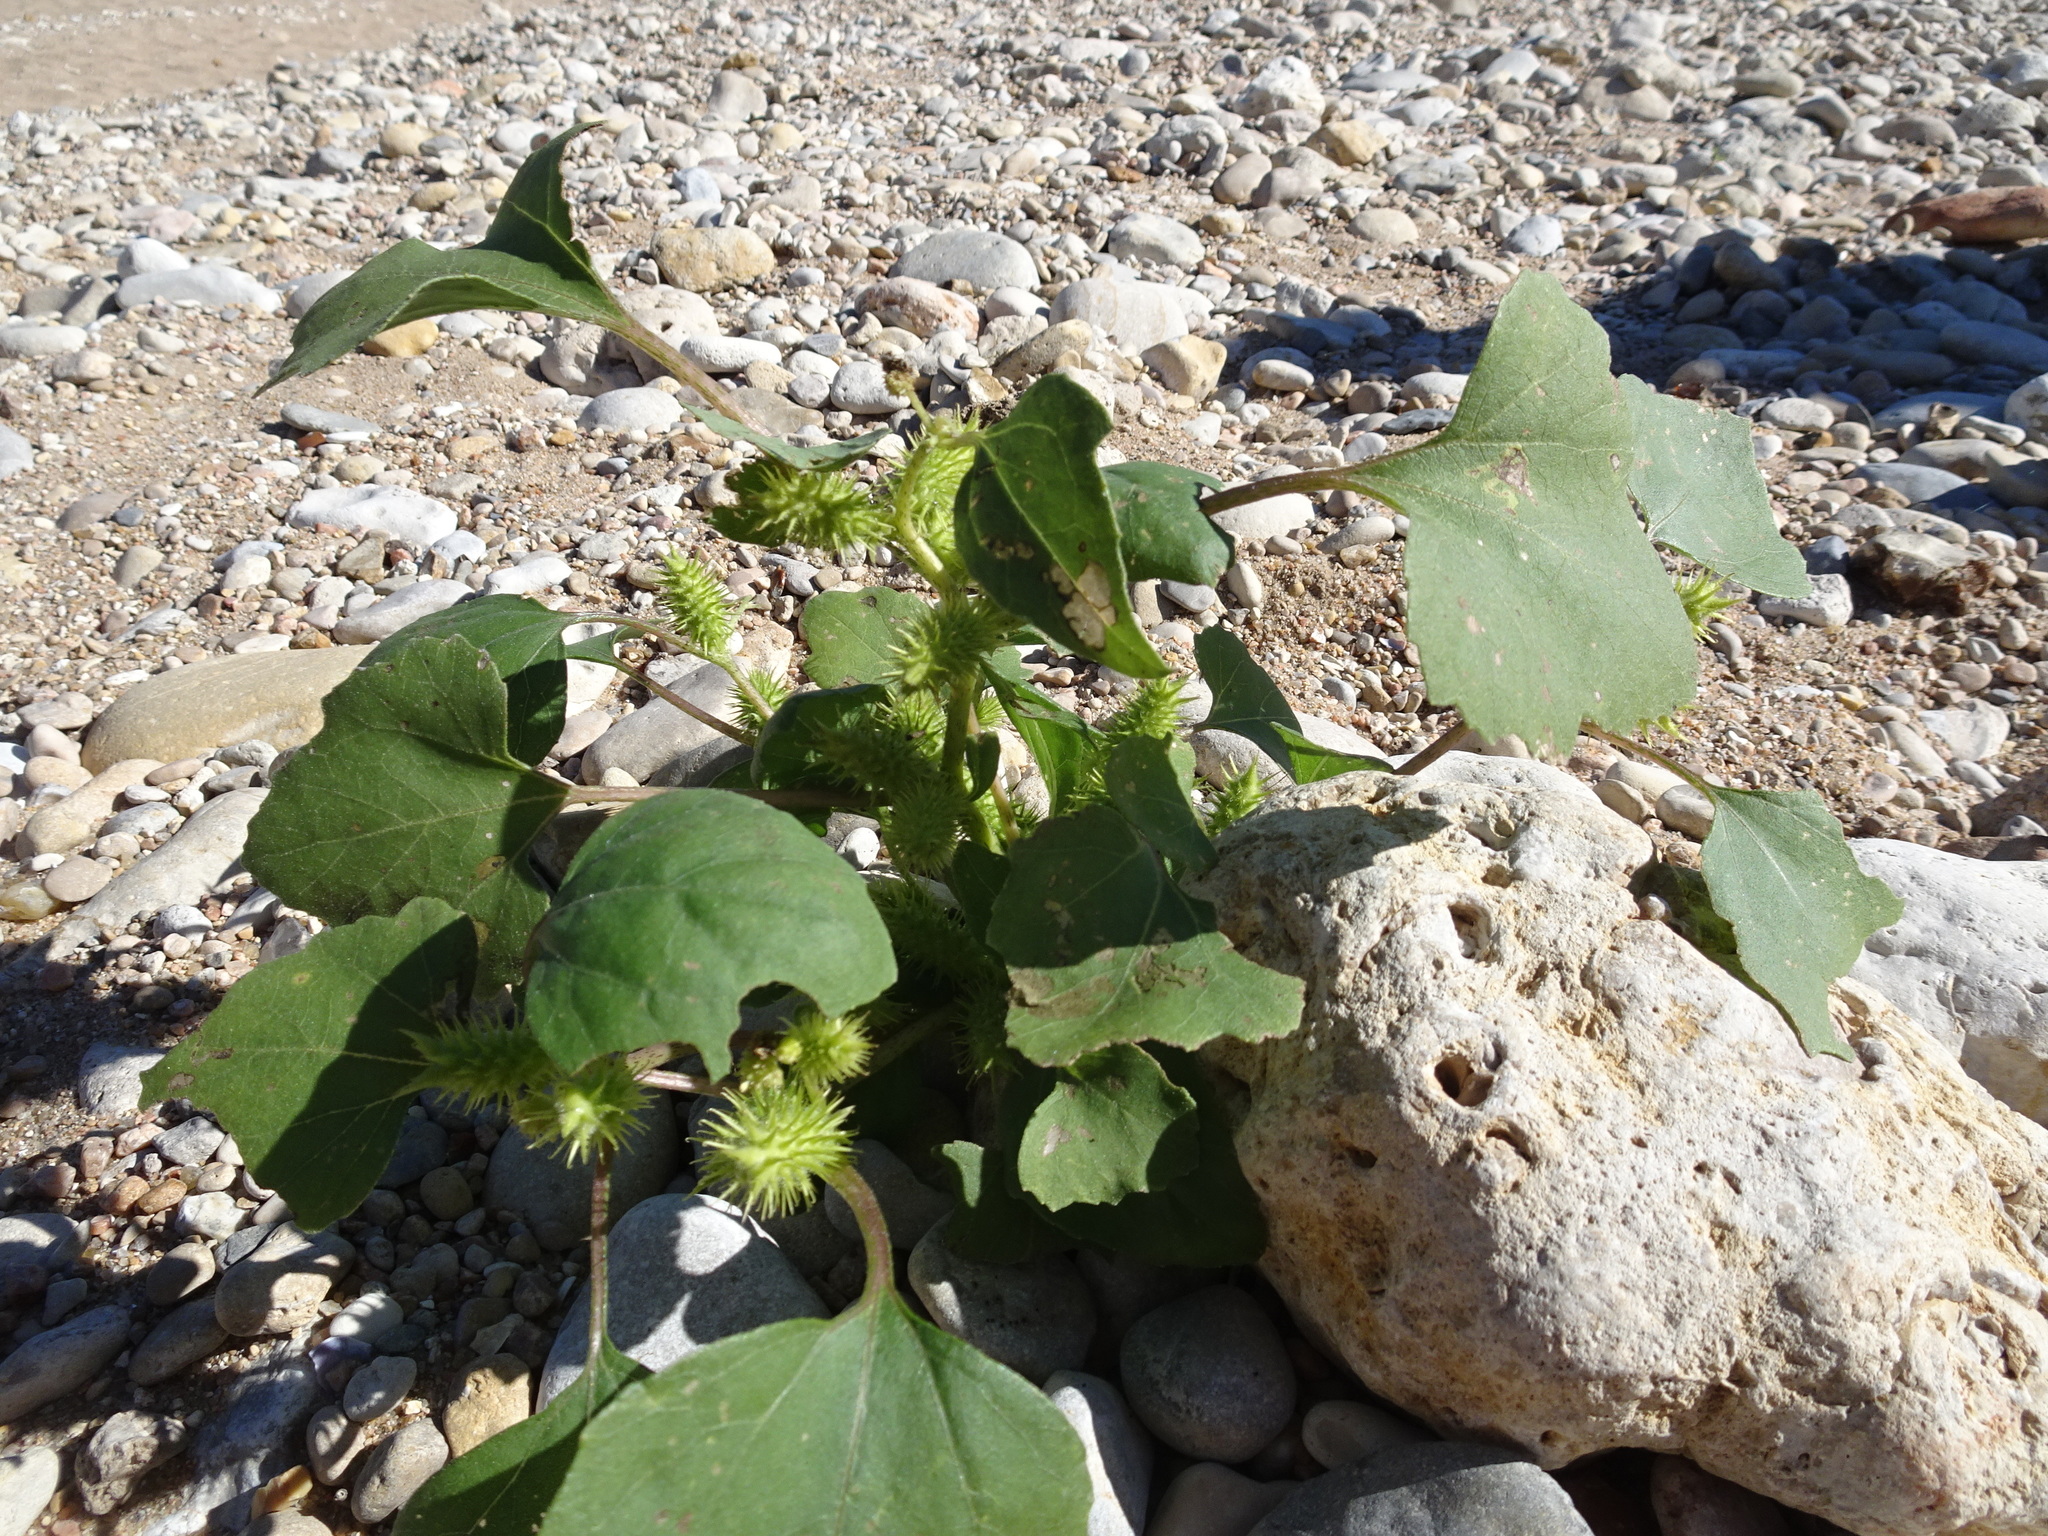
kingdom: Plantae
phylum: Tracheophyta
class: Magnoliopsida
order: Asterales
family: Asteraceae
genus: Xanthium
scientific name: Xanthium strumarium
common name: Rough cocklebur
